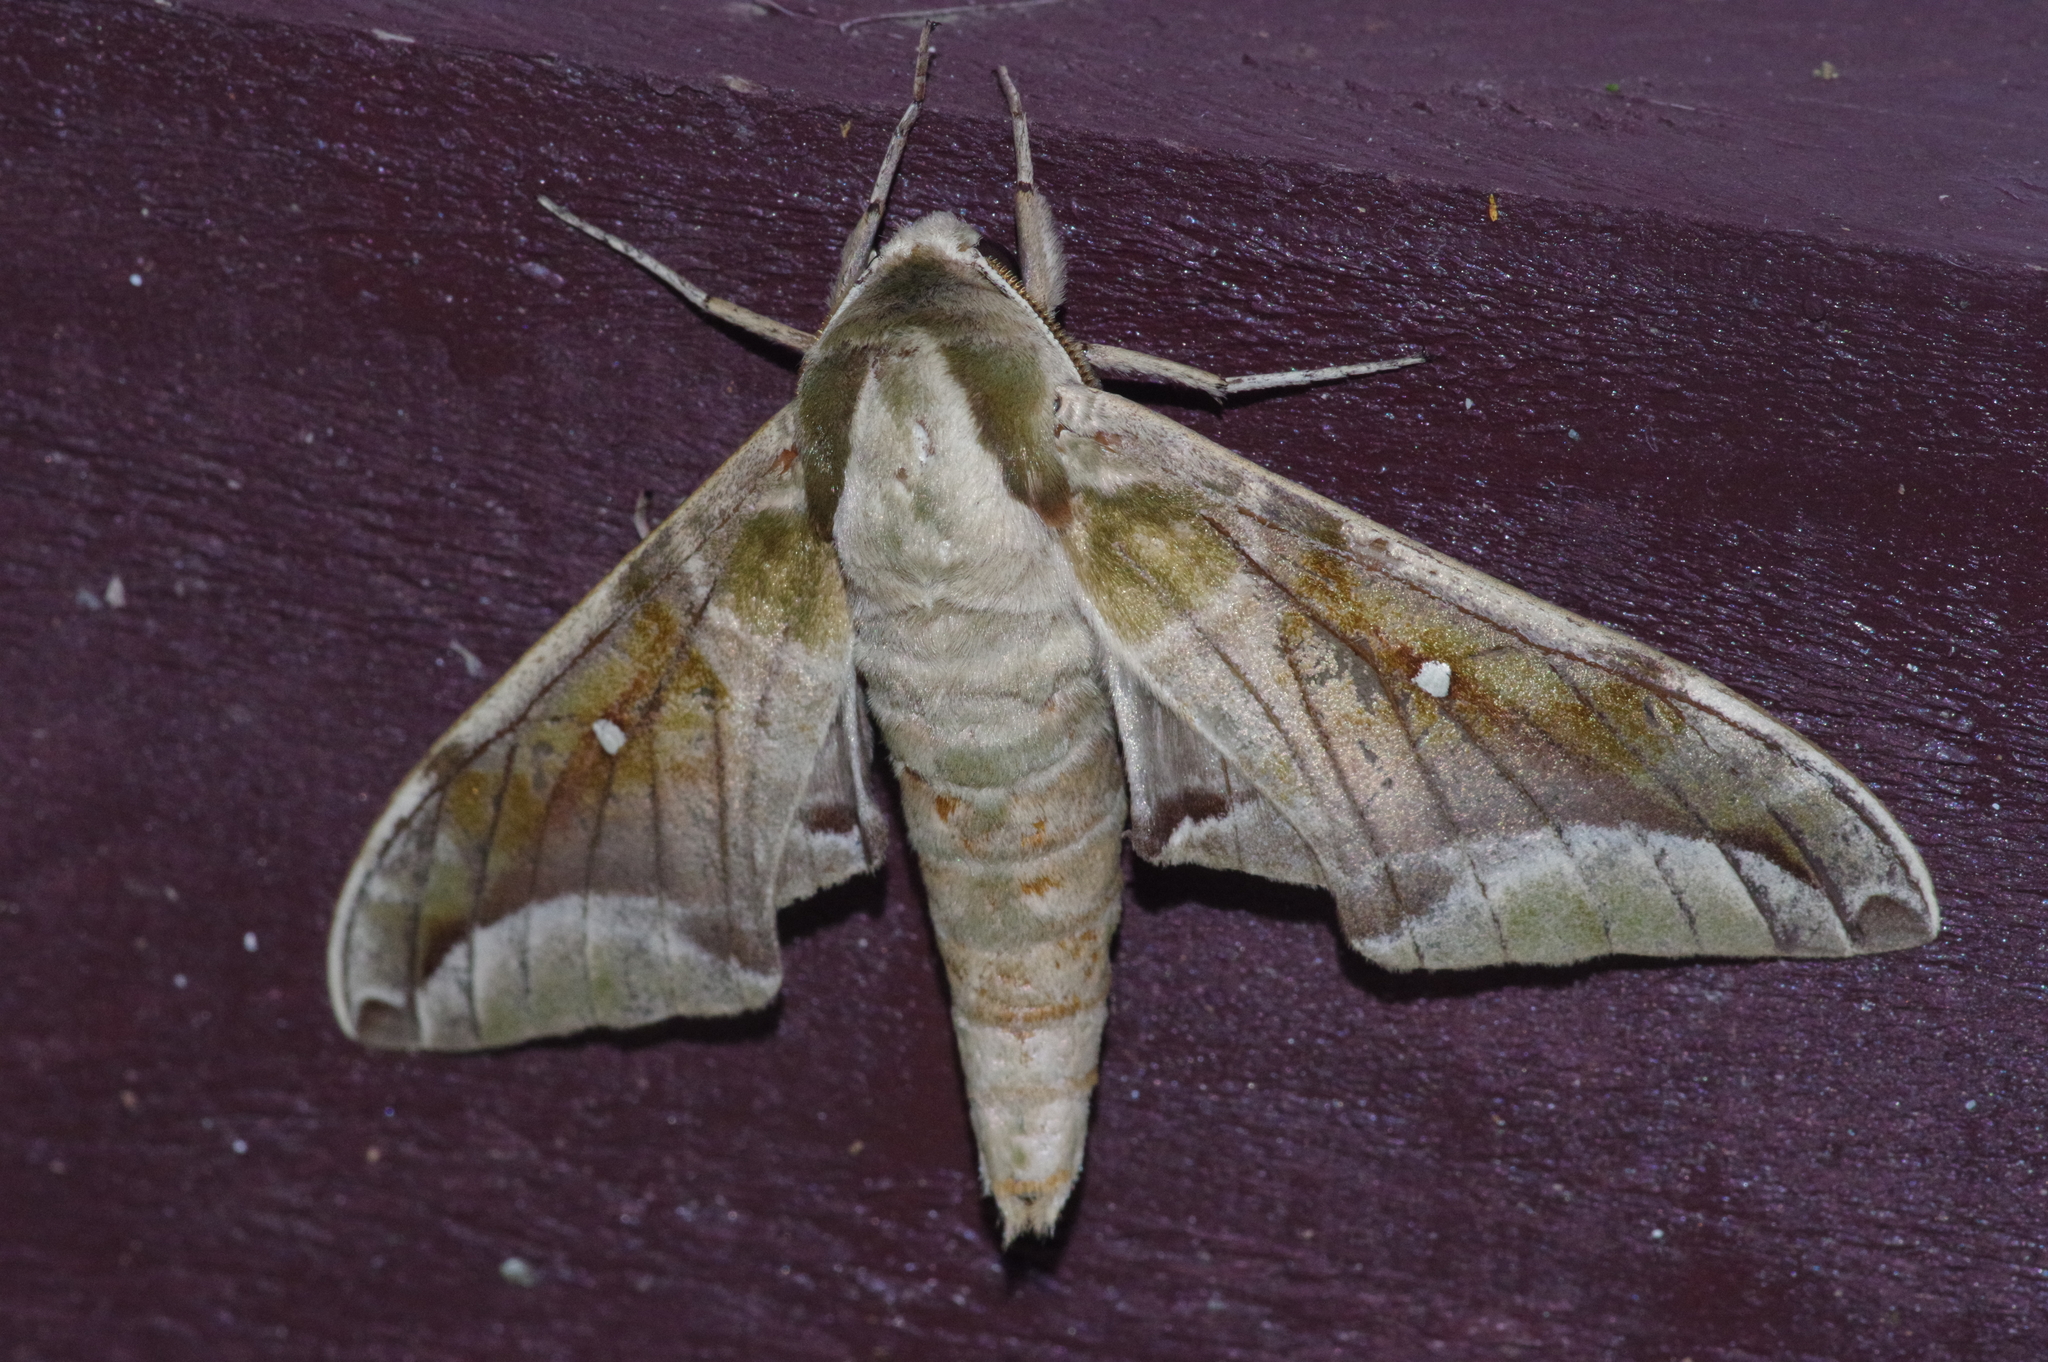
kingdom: Animalia
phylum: Arthropoda
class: Insecta
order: Lepidoptera
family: Sphingidae
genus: Parum
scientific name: Parum colligata
